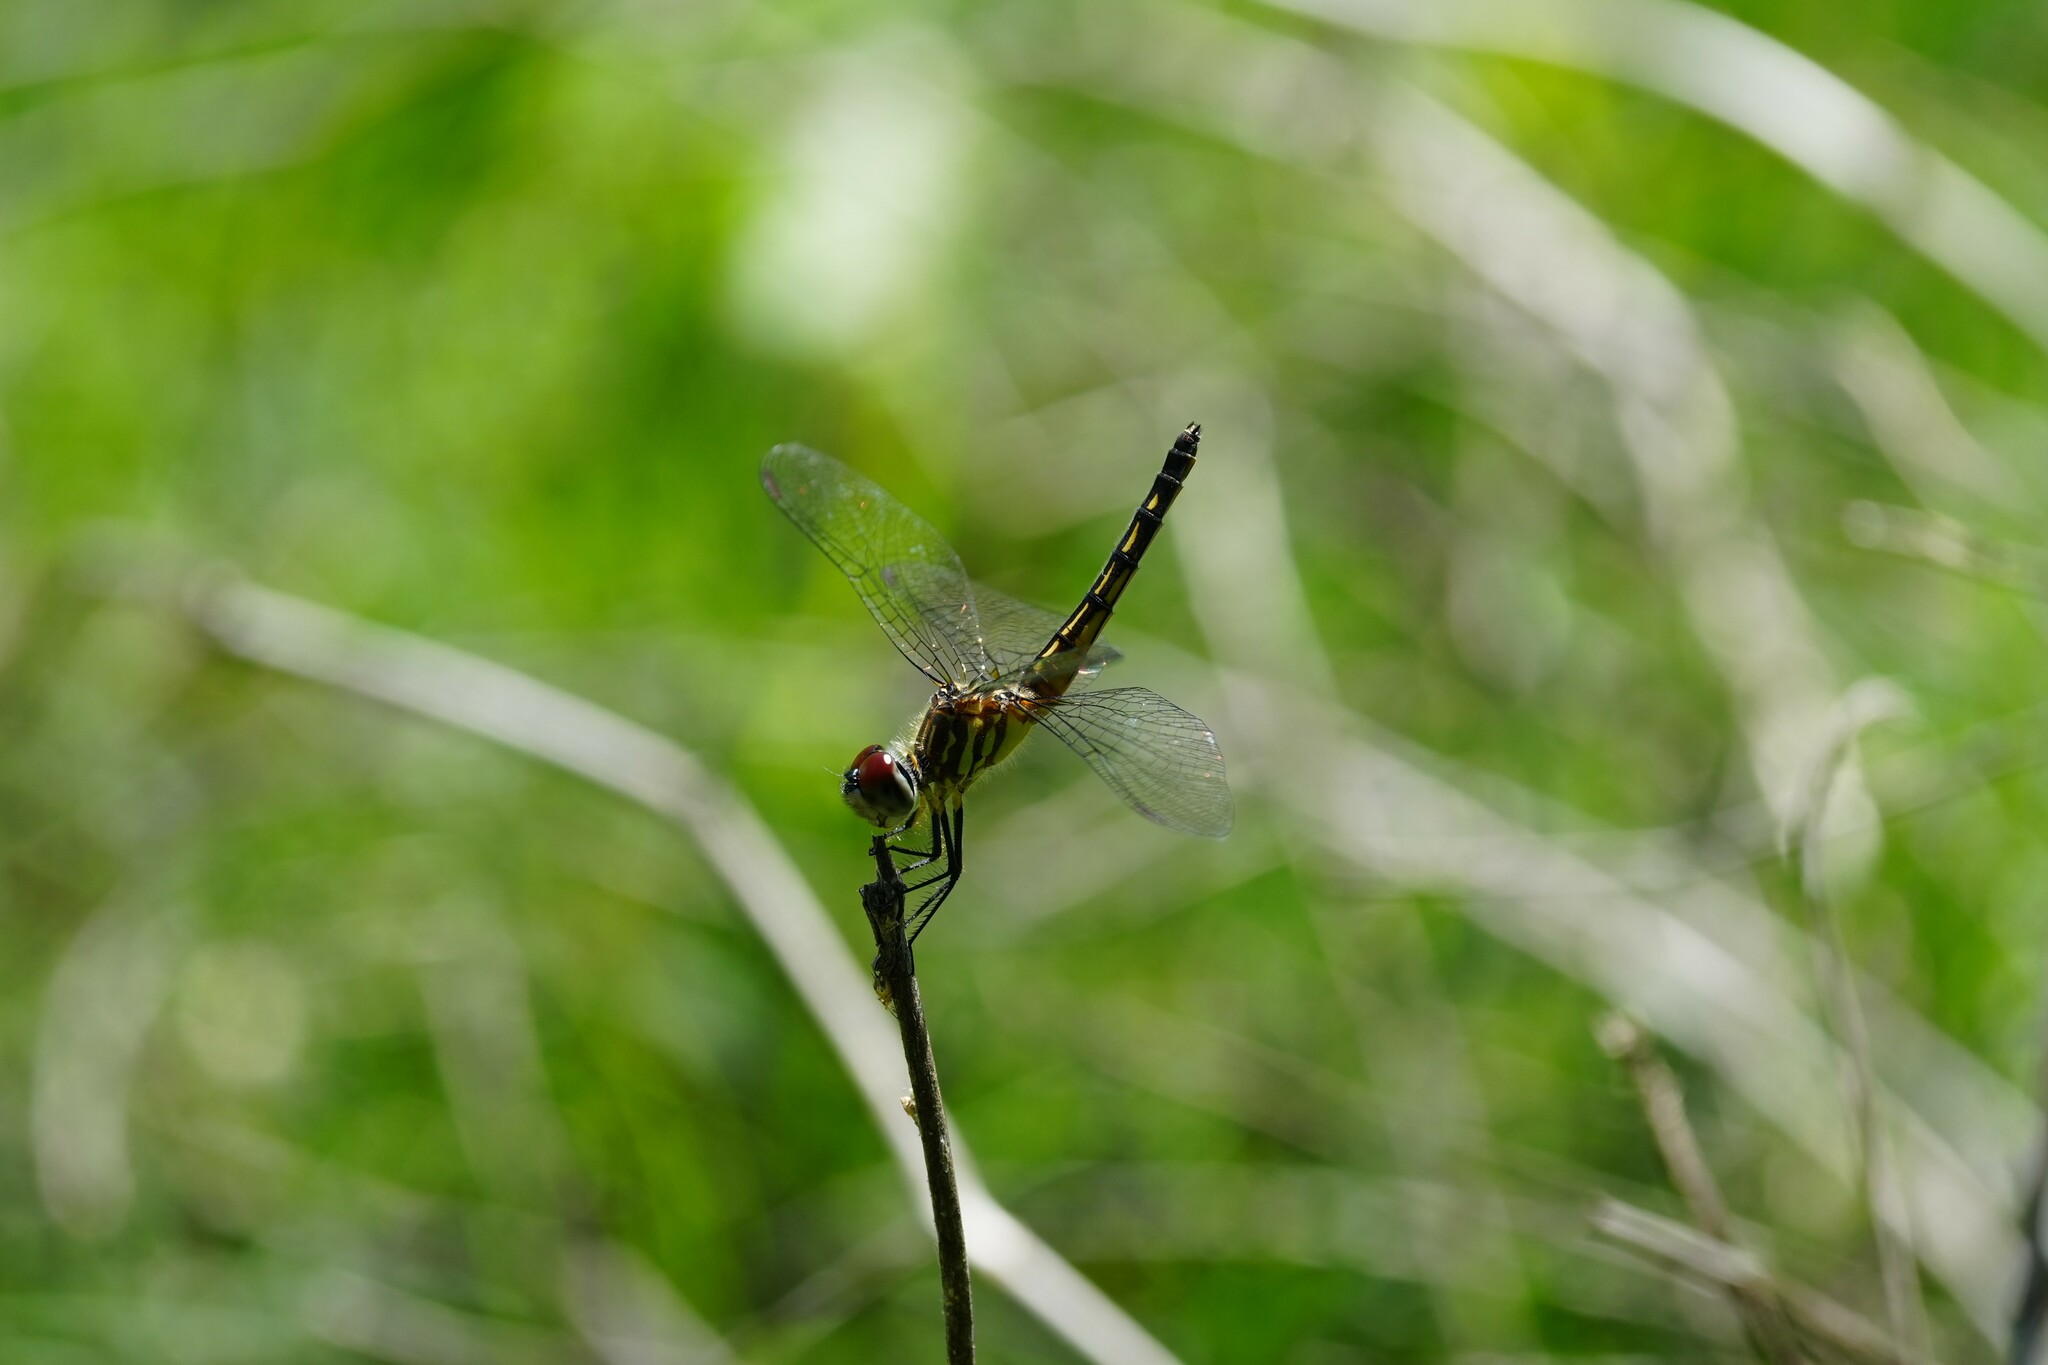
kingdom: Animalia
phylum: Arthropoda
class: Insecta
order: Odonata
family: Libellulidae
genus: Pachydiplax
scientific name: Pachydiplax longipennis
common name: Blue dasher
